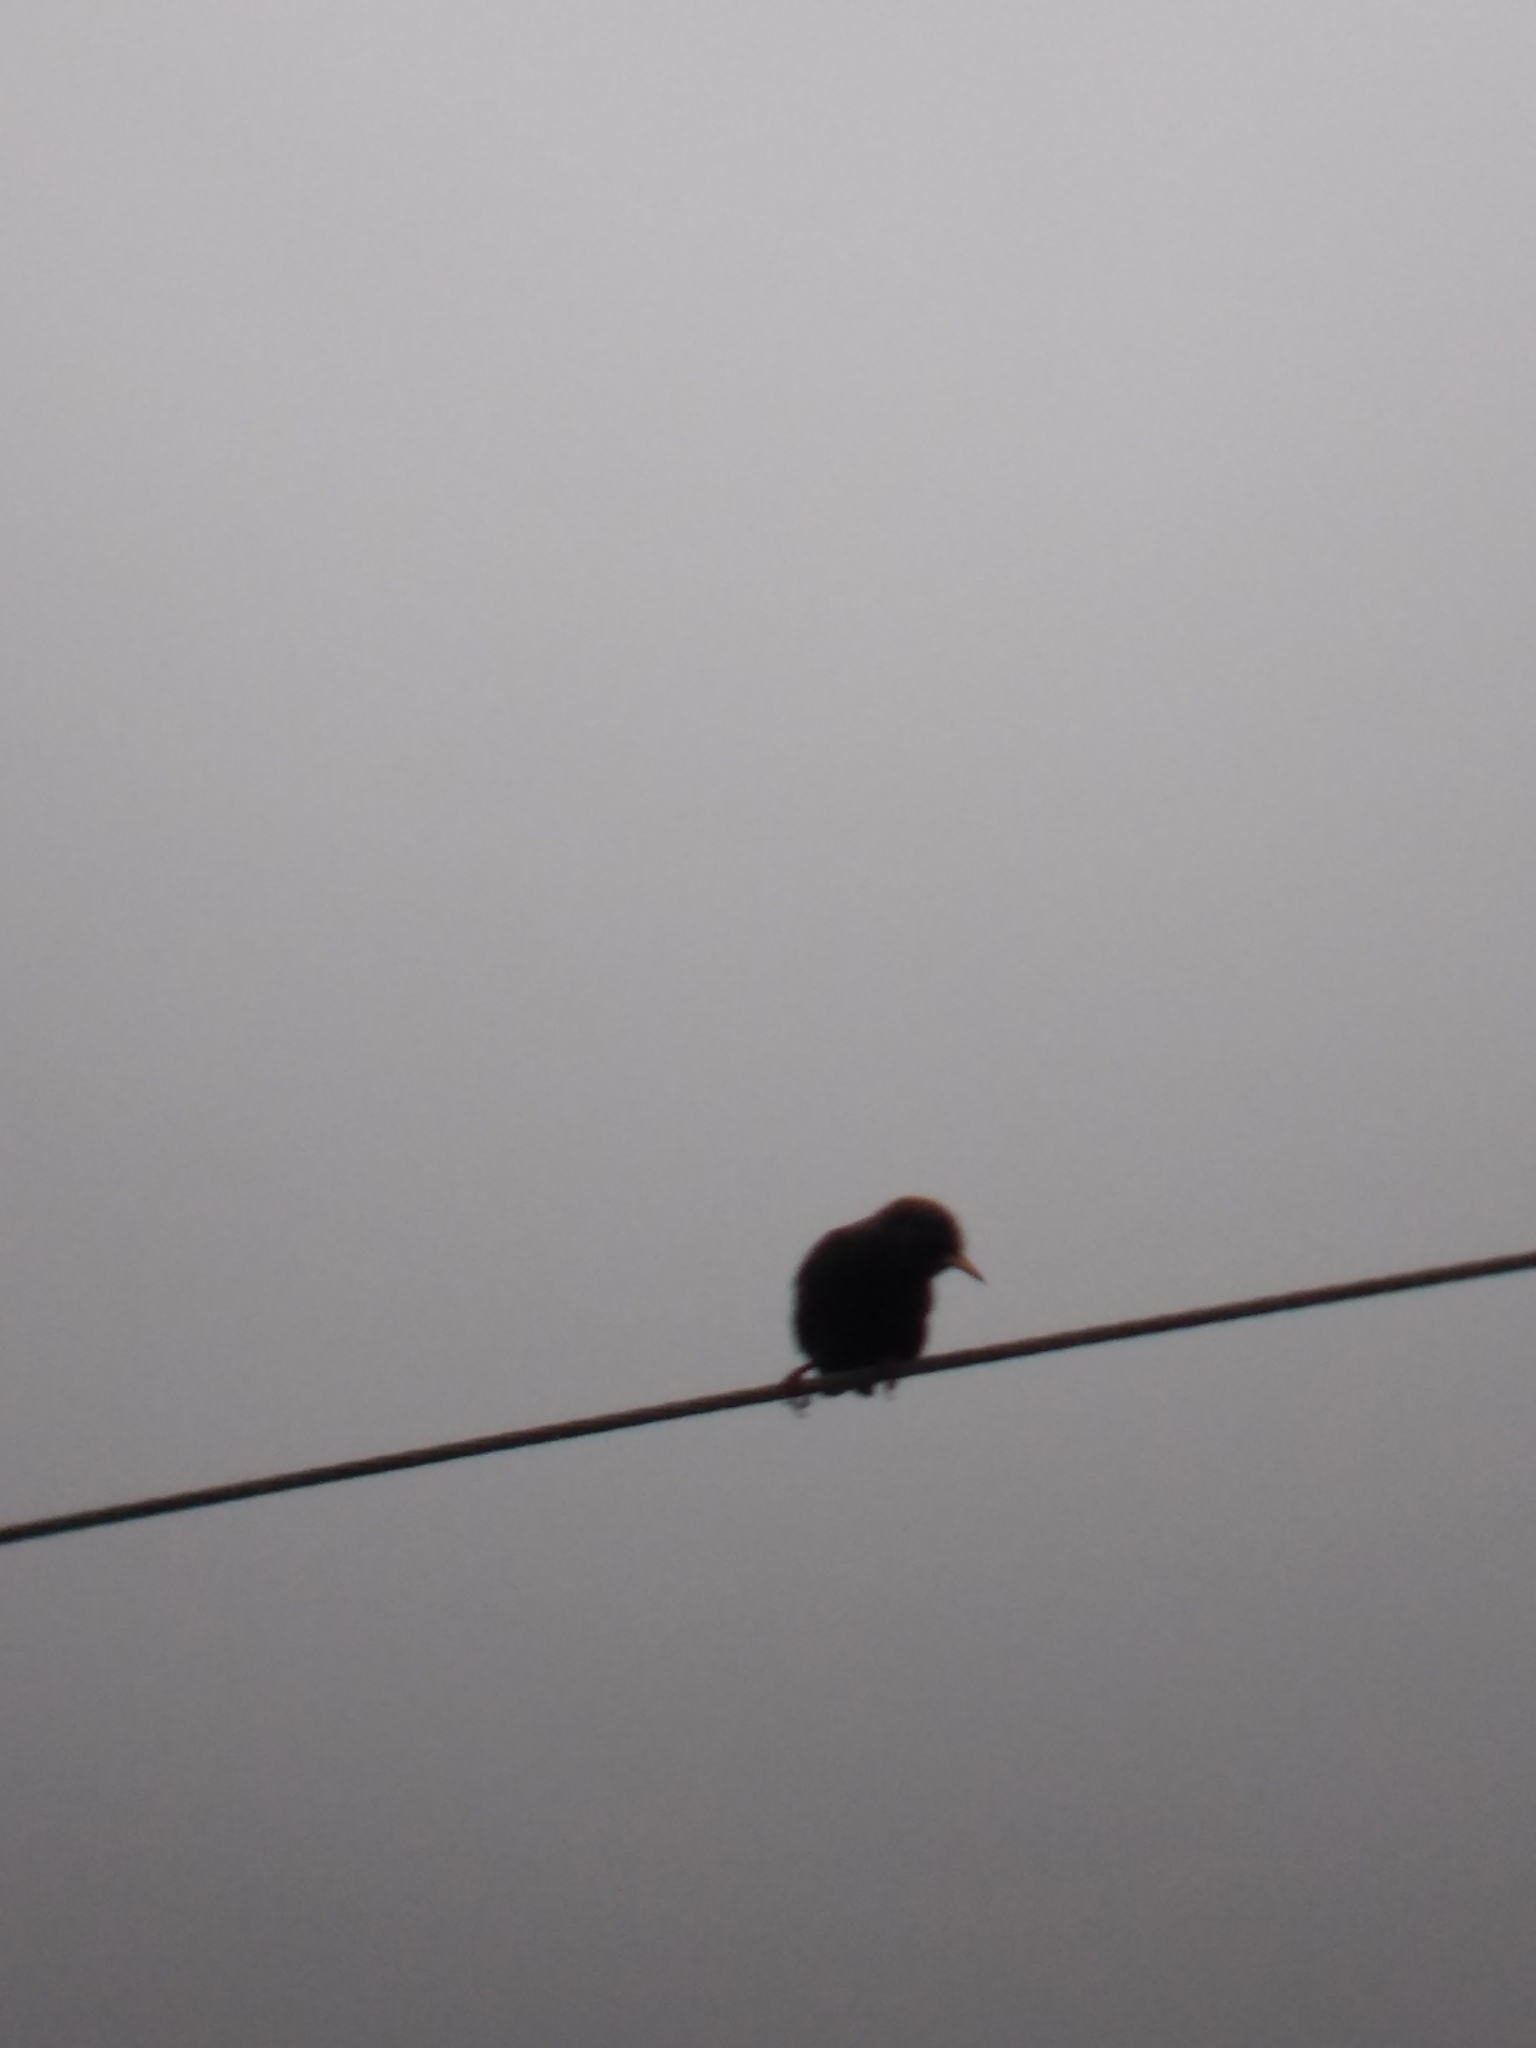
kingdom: Animalia
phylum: Chordata
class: Aves
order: Passeriformes
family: Sturnidae
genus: Sturnus
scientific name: Sturnus vulgaris
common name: Common starling
